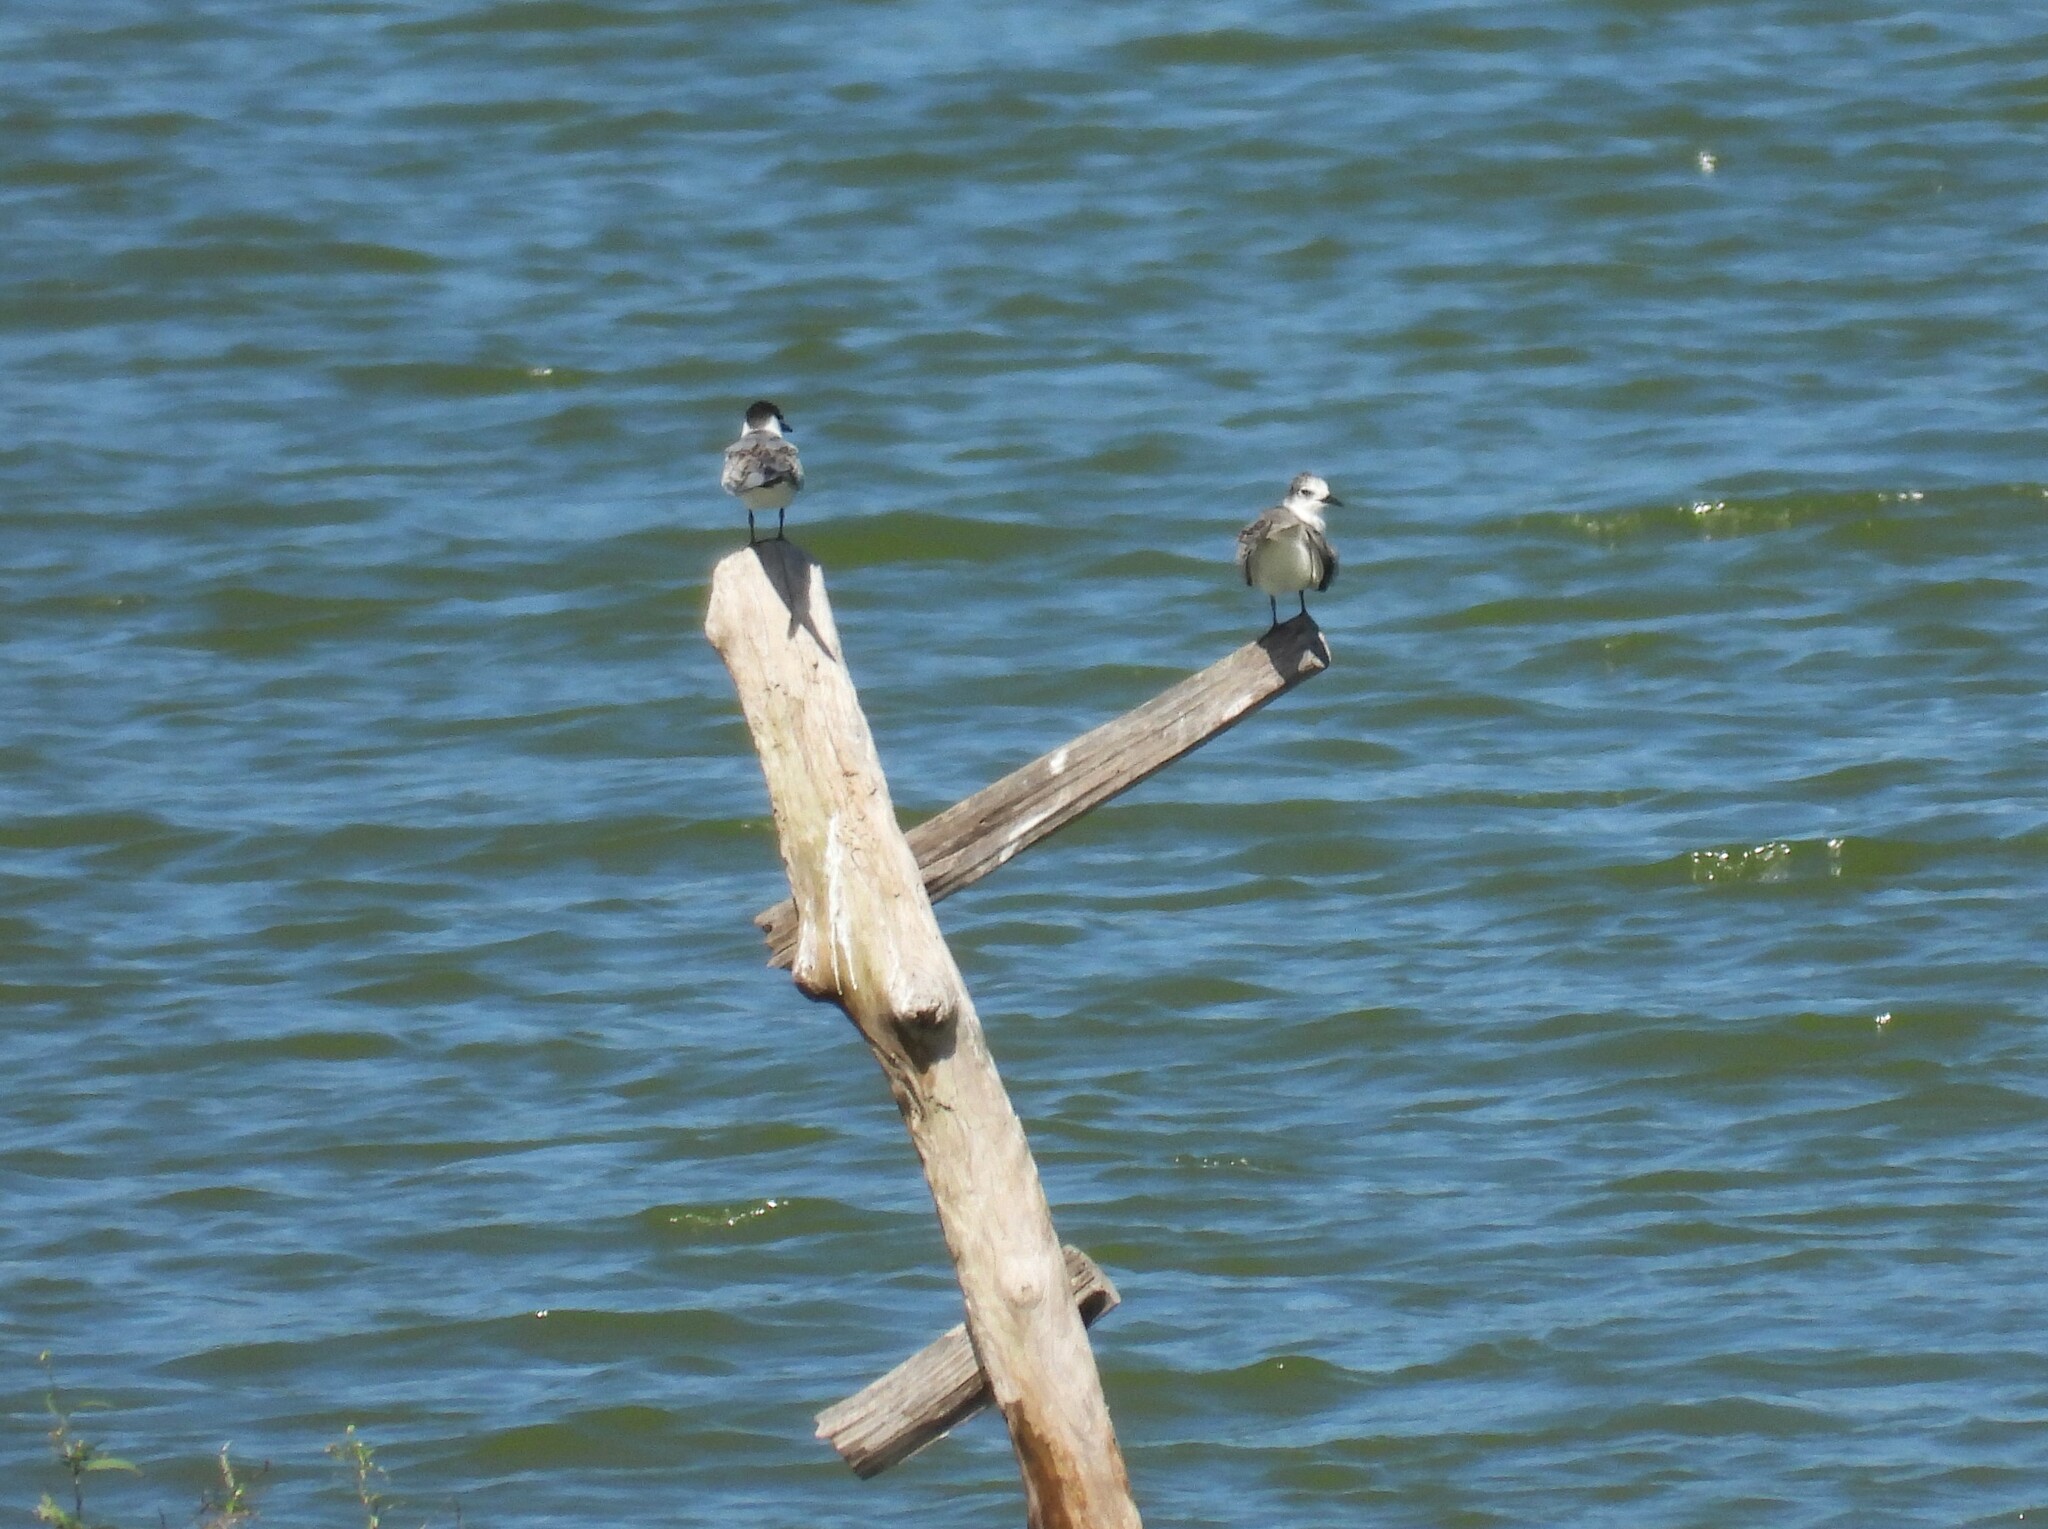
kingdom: Animalia
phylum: Chordata
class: Aves
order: Charadriiformes
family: Laridae
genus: Chlidonias
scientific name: Chlidonias hybrida
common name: Whiskered tern
